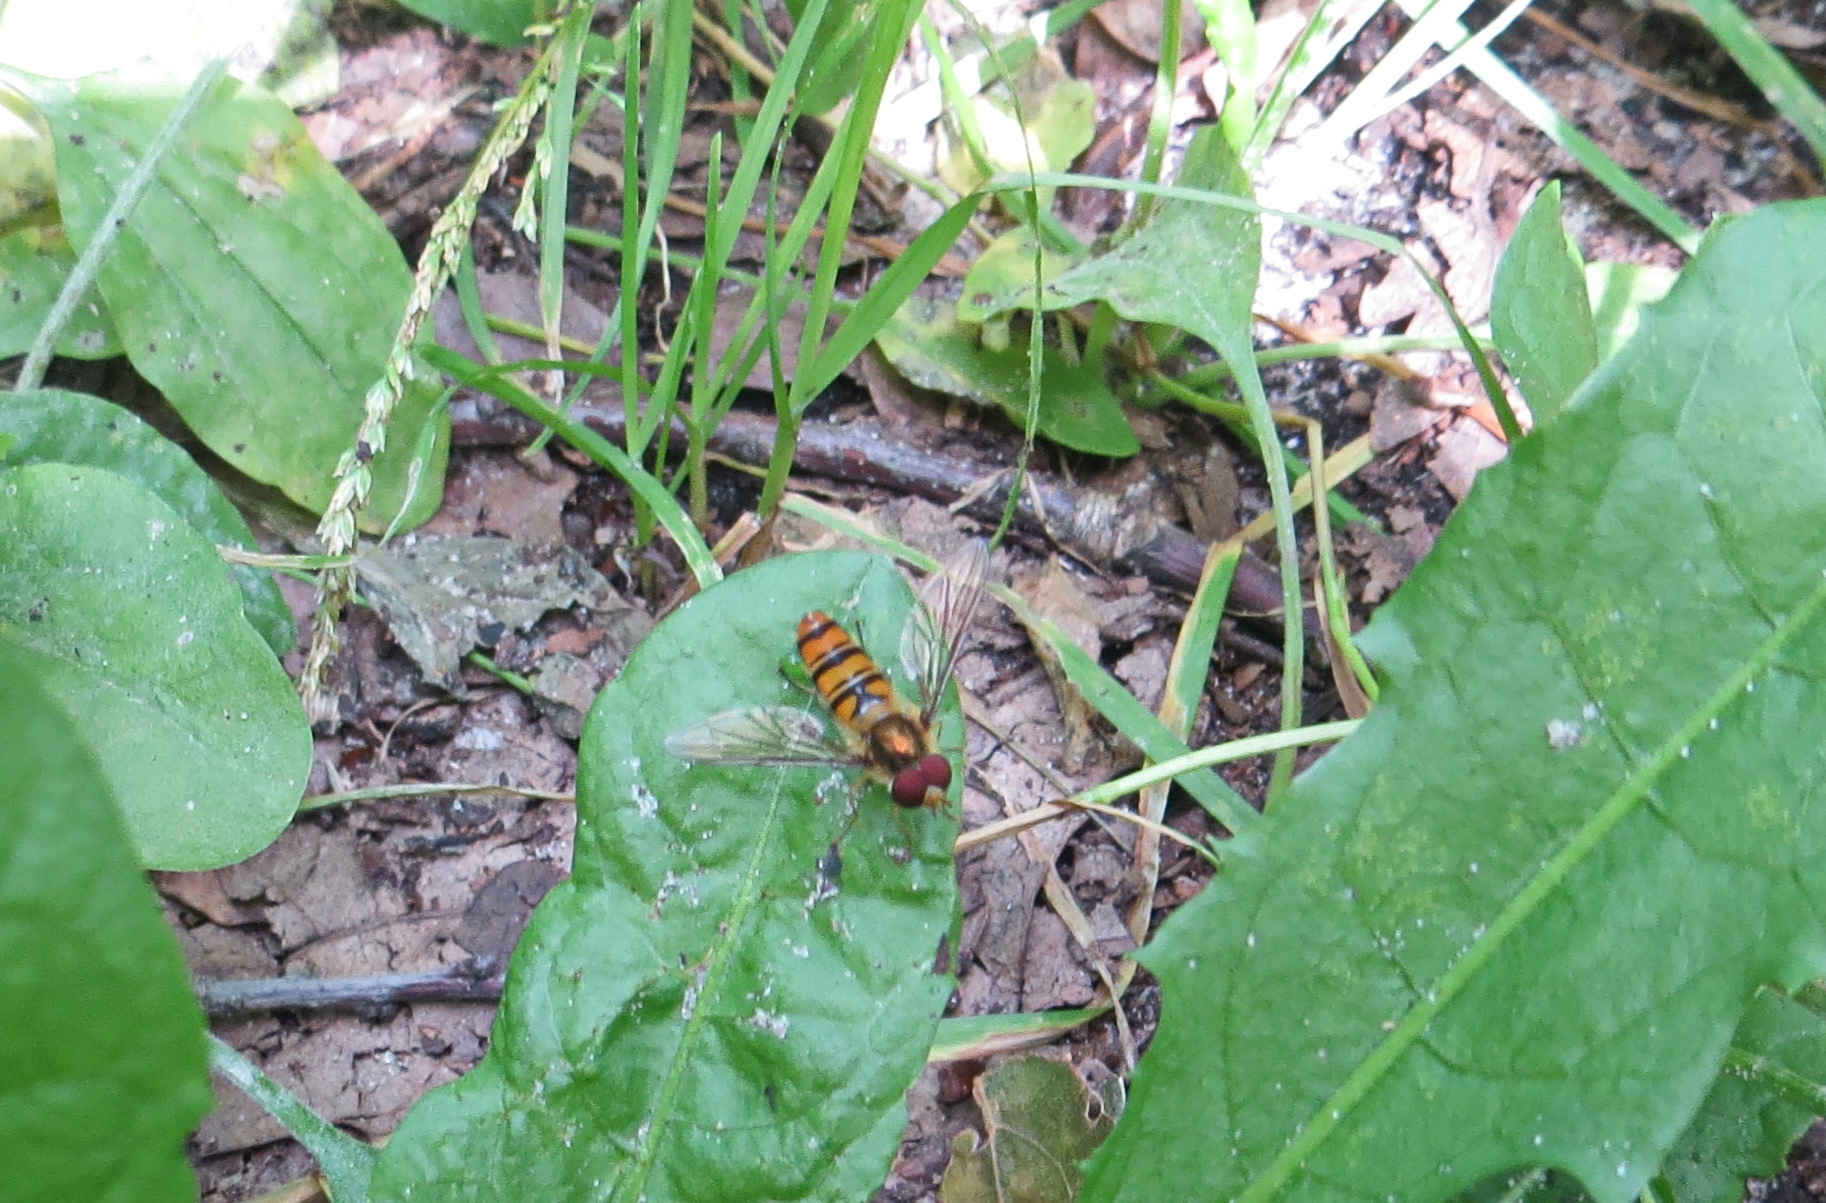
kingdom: Animalia
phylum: Arthropoda
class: Insecta
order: Diptera
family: Syrphidae
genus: Episyrphus
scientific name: Episyrphus balteatus
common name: Marmalade hoverfly
